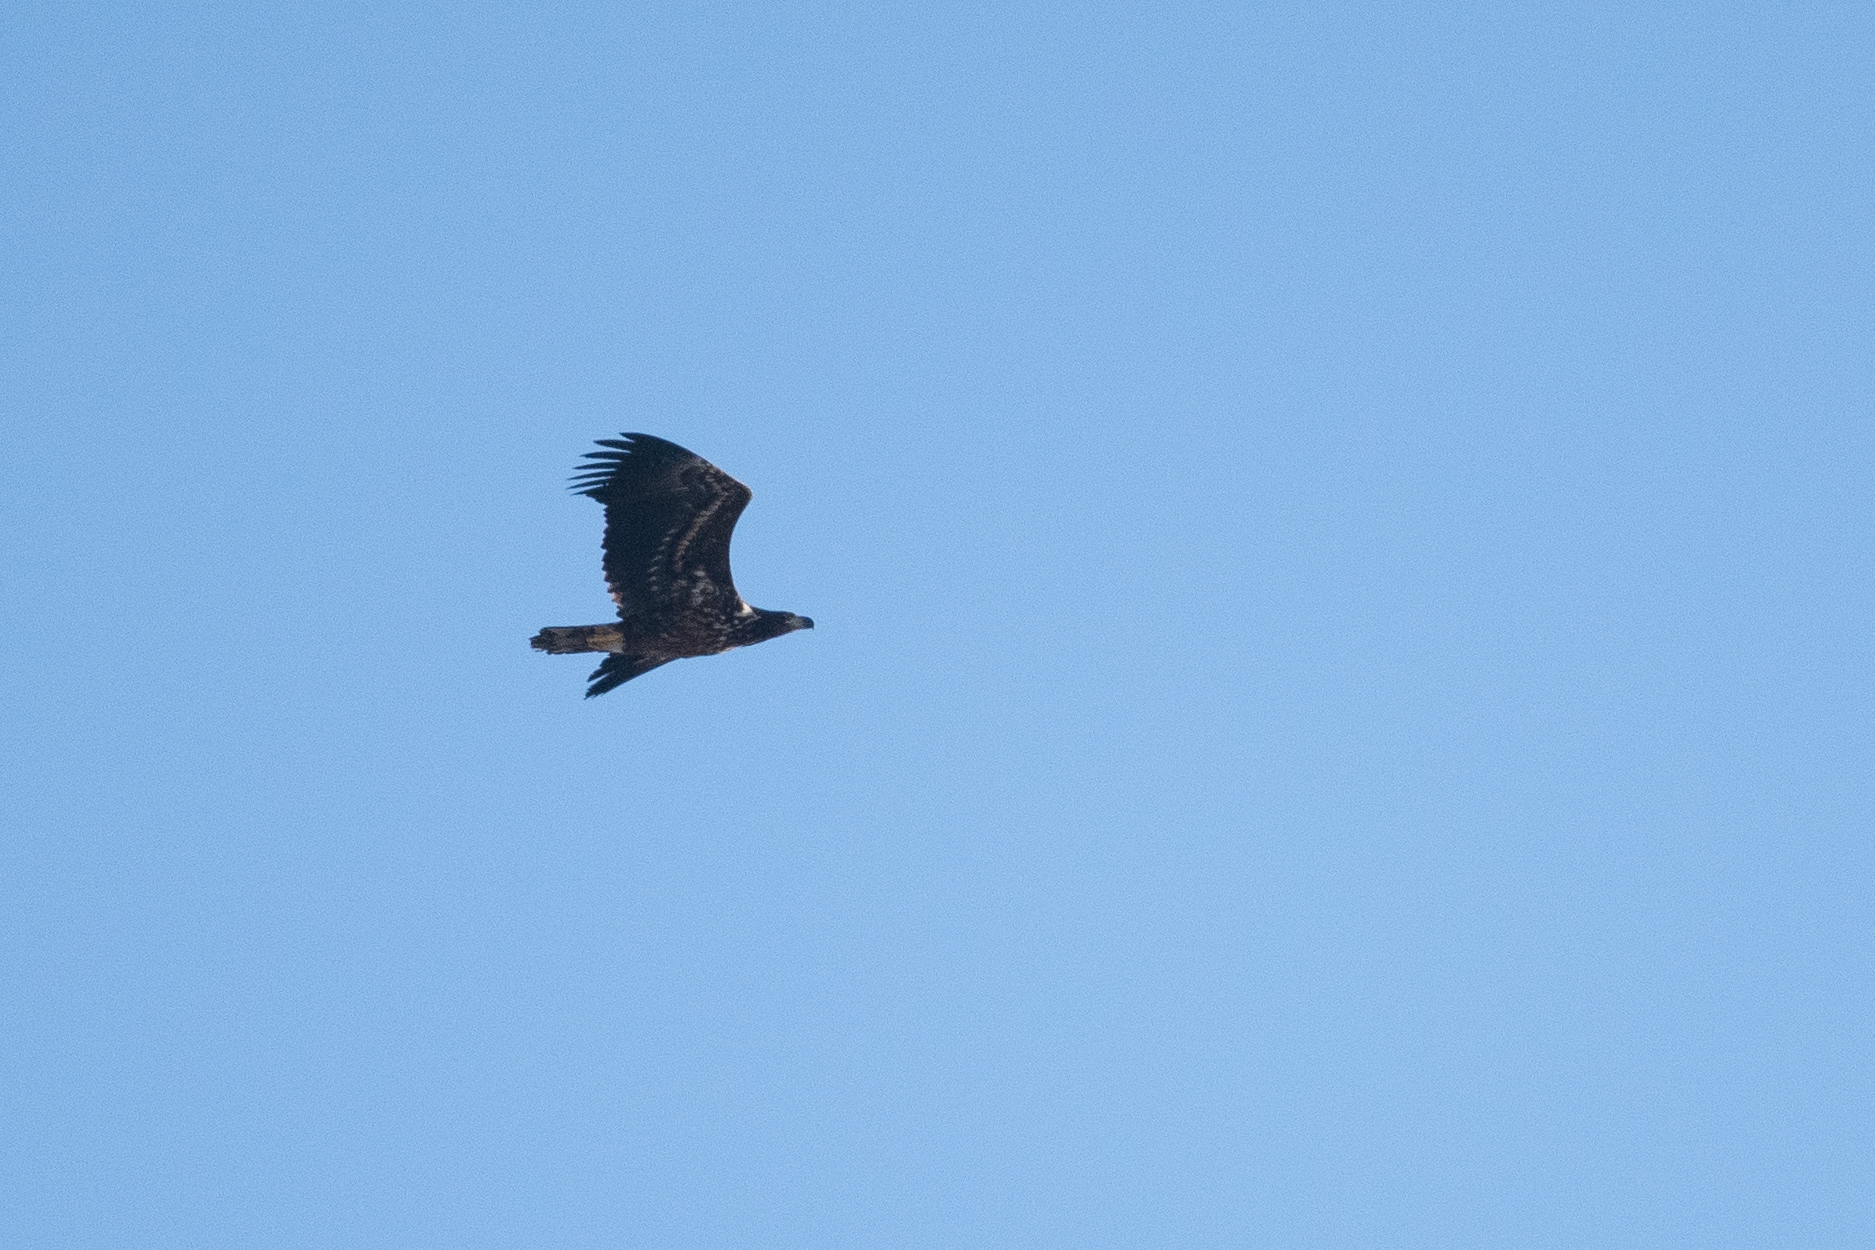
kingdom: Animalia
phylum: Chordata
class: Aves
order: Accipitriformes
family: Accipitridae
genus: Haliaeetus
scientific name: Haliaeetus albicilla
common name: White-tailed eagle
